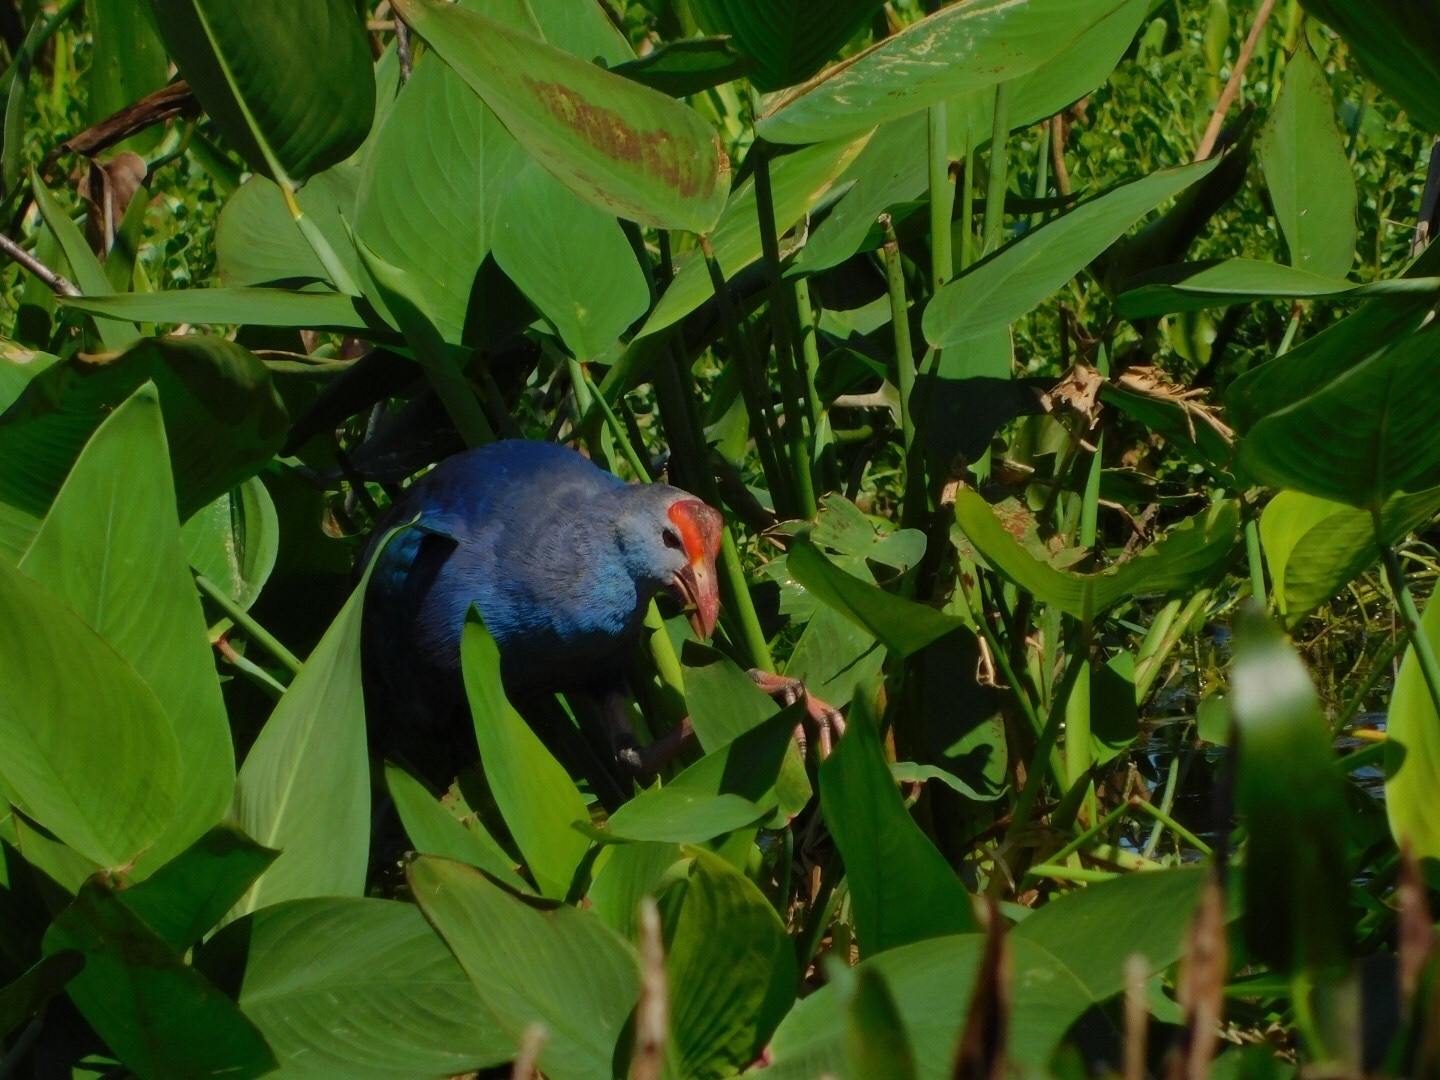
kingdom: Animalia
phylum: Chordata
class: Aves
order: Gruiformes
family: Rallidae
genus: Porphyrio
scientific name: Porphyrio porphyrio
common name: Purple swamphen
